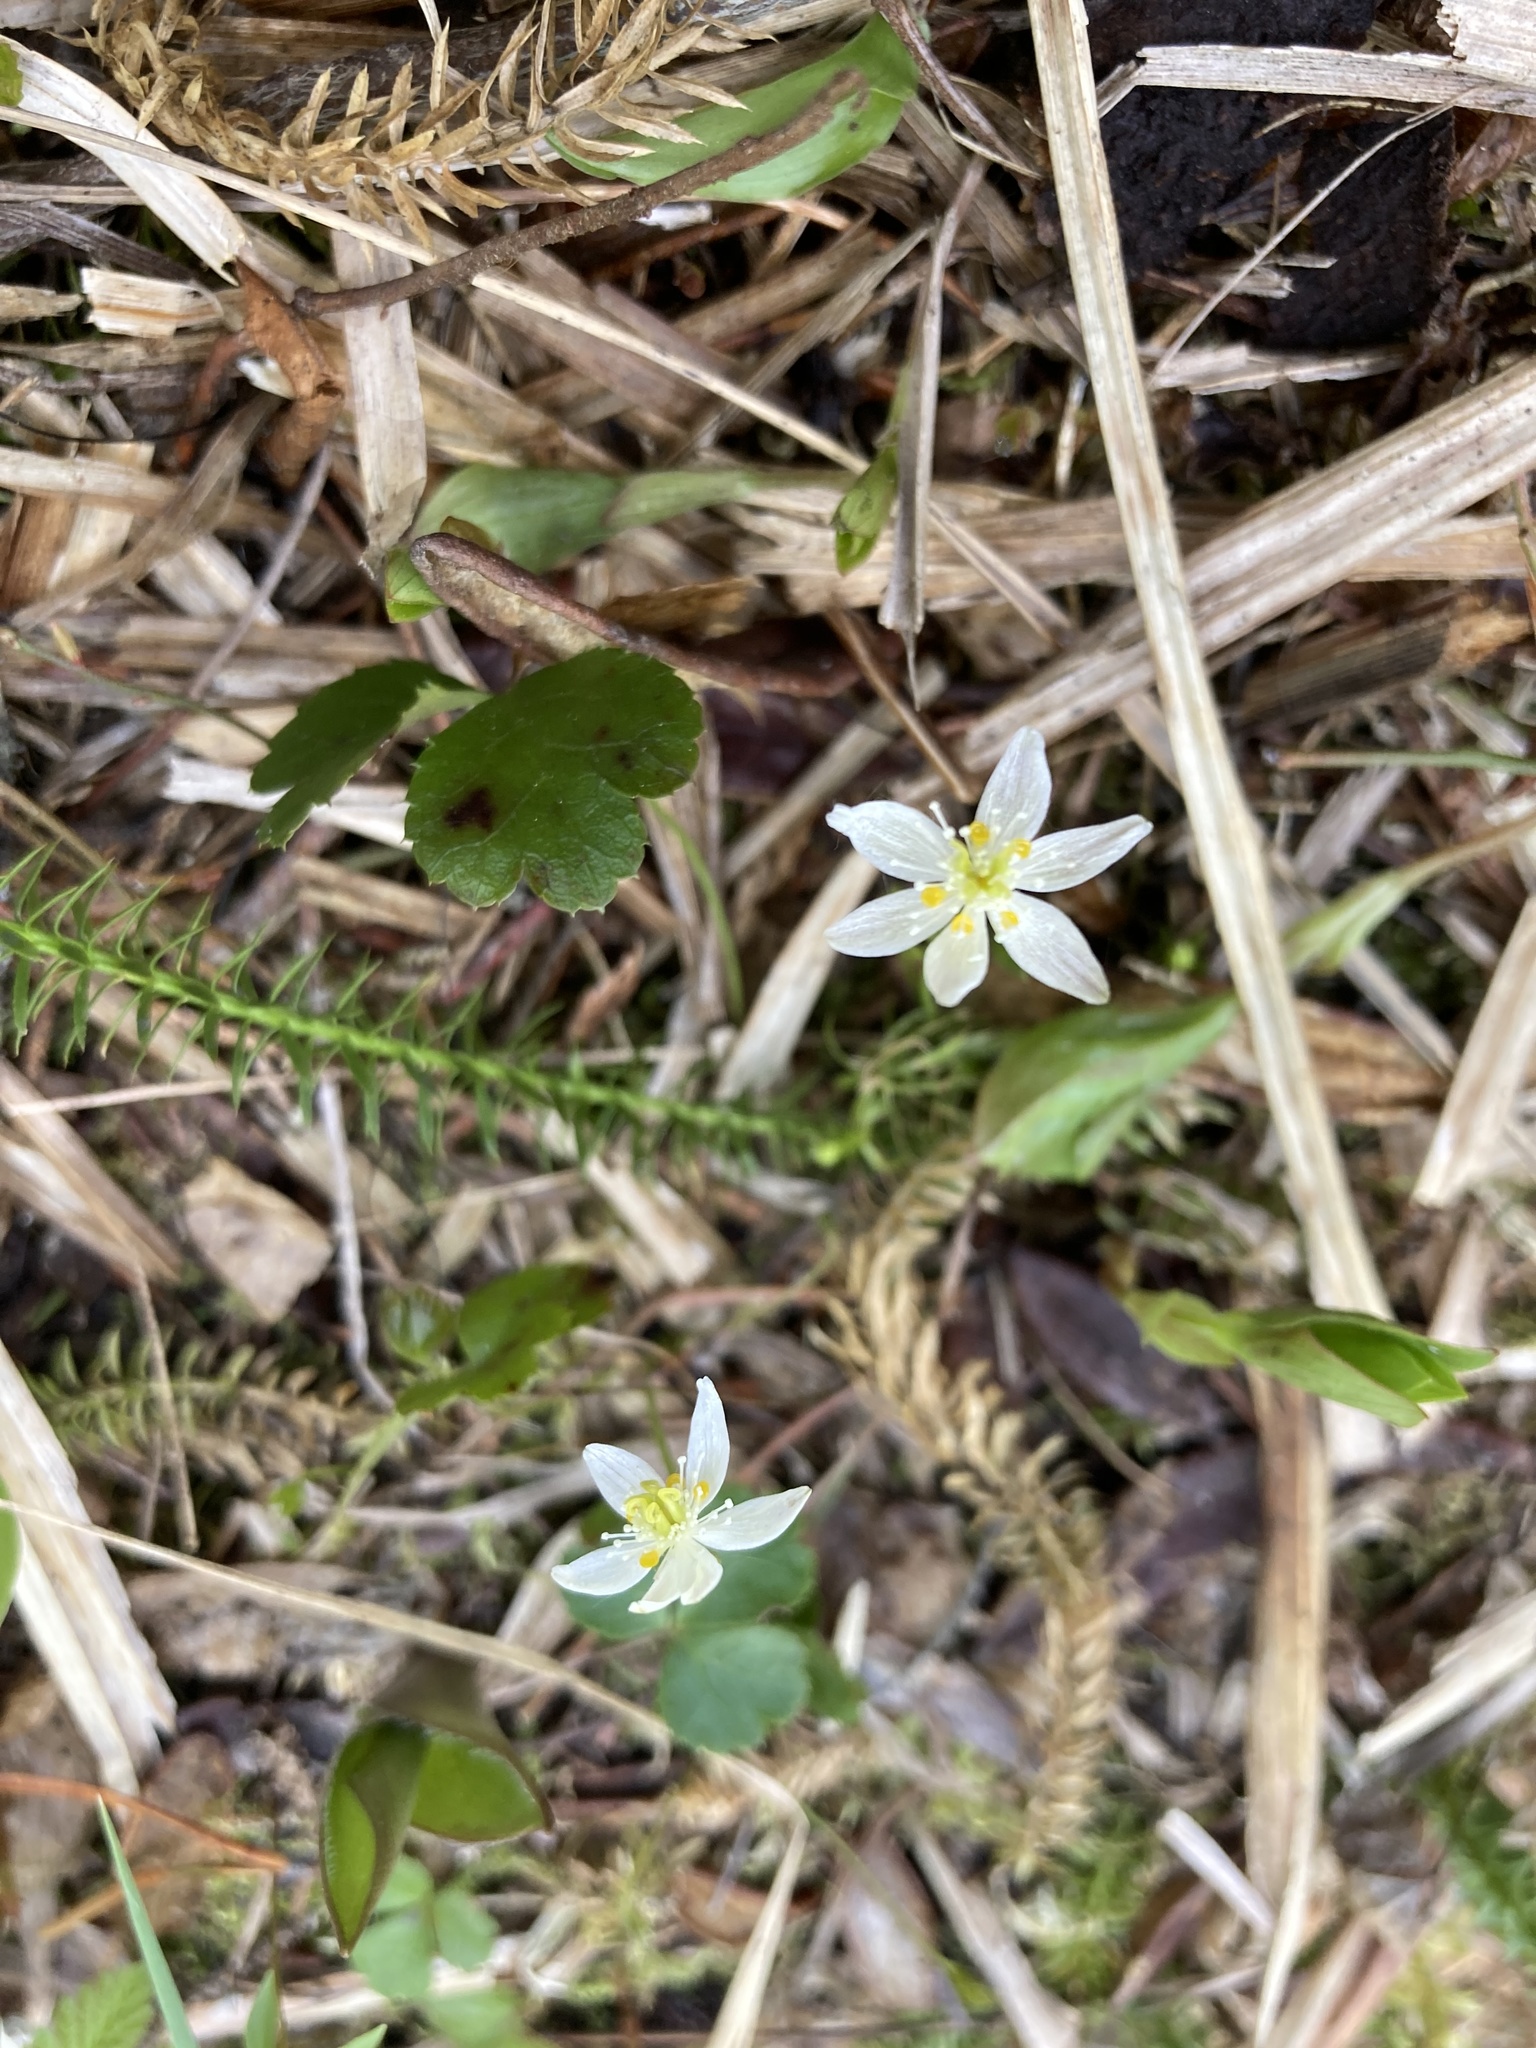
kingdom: Plantae
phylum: Tracheophyta
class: Magnoliopsida
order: Ranunculales
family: Ranunculaceae
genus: Coptis
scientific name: Coptis trifolia
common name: Canker-root
